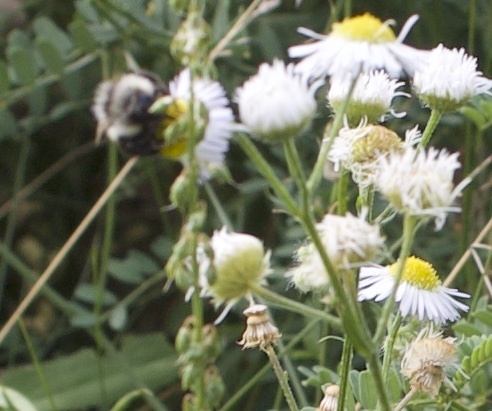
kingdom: Animalia
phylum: Arthropoda
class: Insecta
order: Hymenoptera
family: Apidae
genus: Bombus
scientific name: Bombus rufocinctus
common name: Red-belted bumble bee
